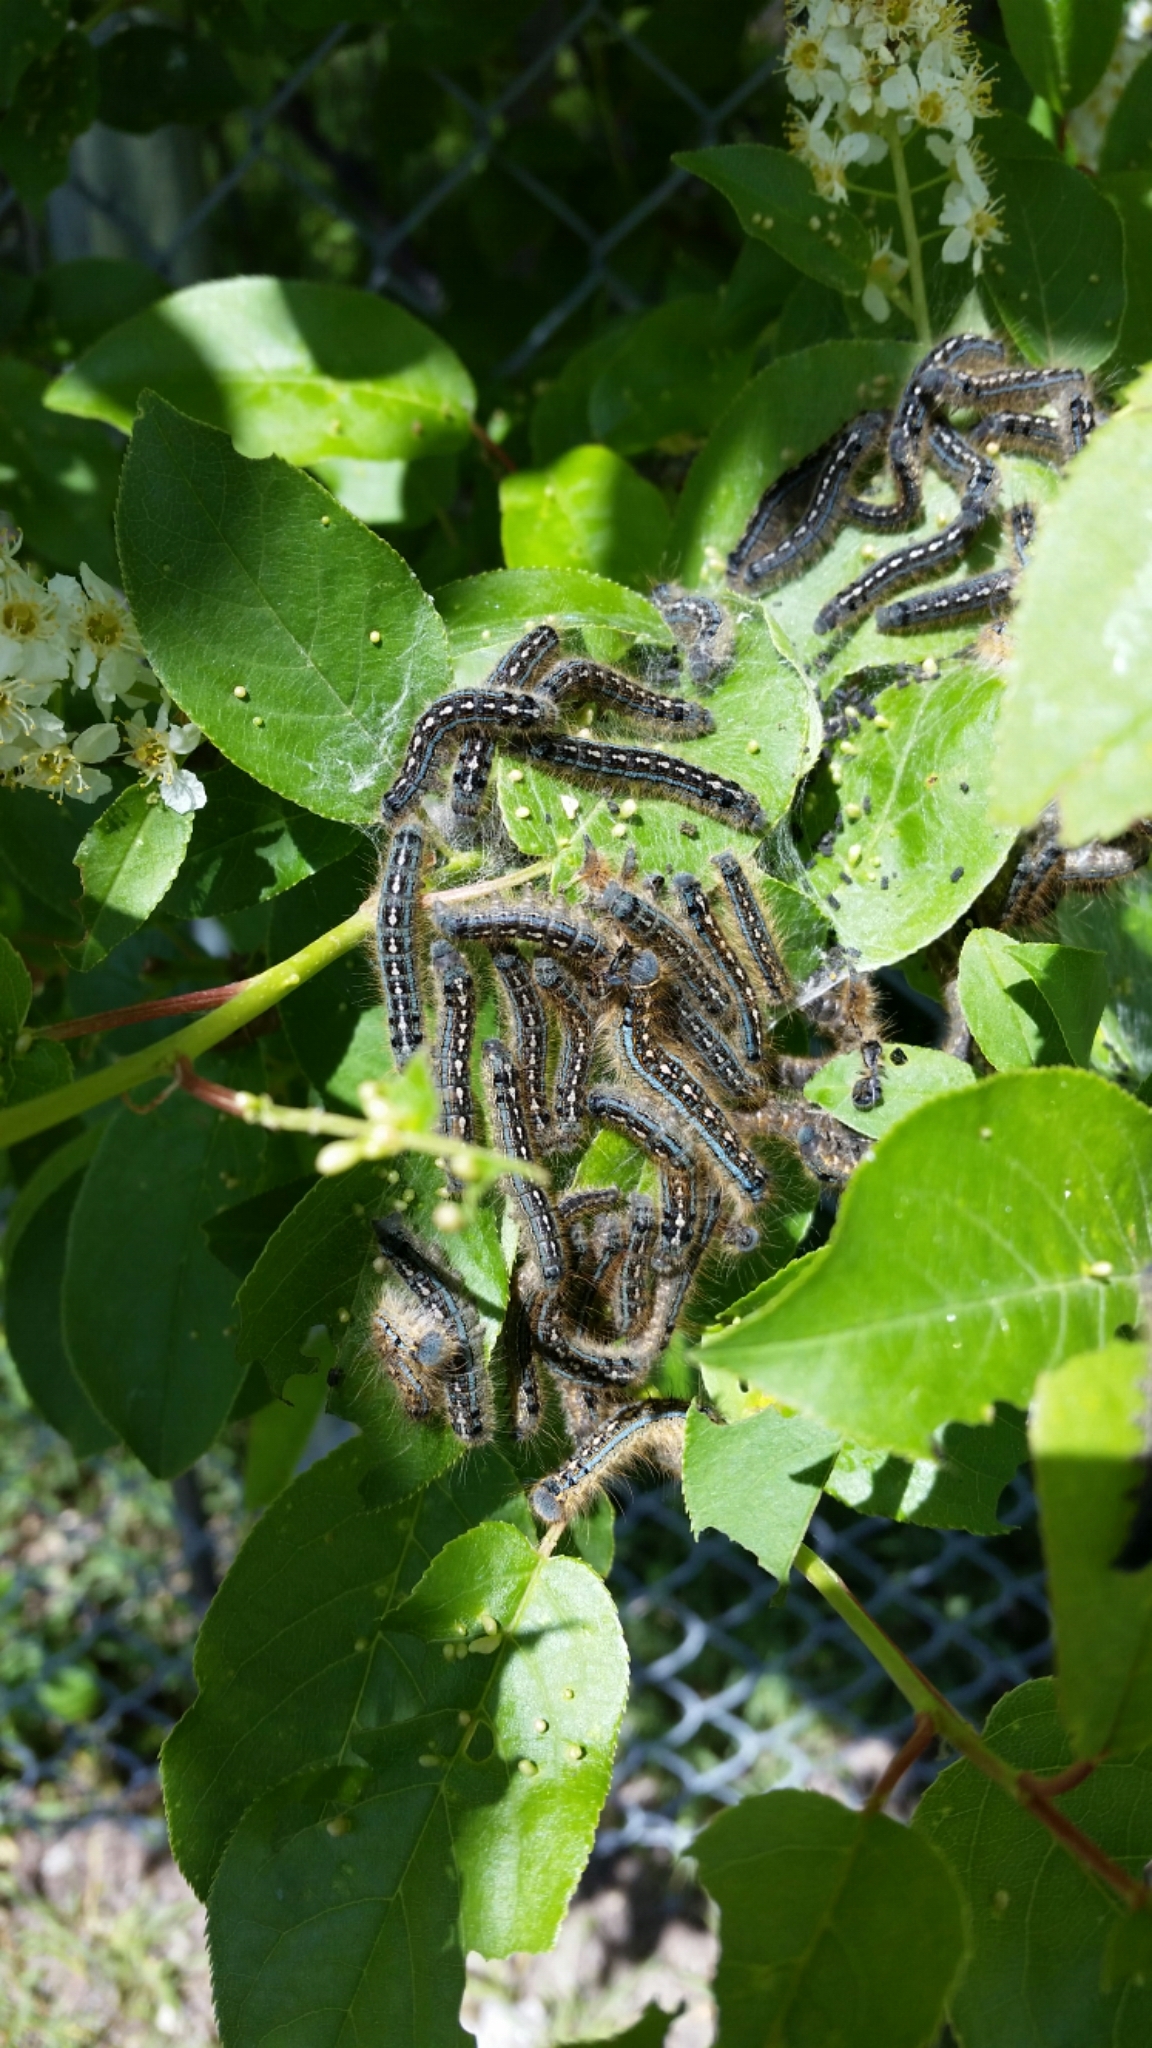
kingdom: Animalia
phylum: Arthropoda
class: Insecta
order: Lepidoptera
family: Lasiocampidae
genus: Malacosoma
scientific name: Malacosoma disstria
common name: Forest tent caterpillar
